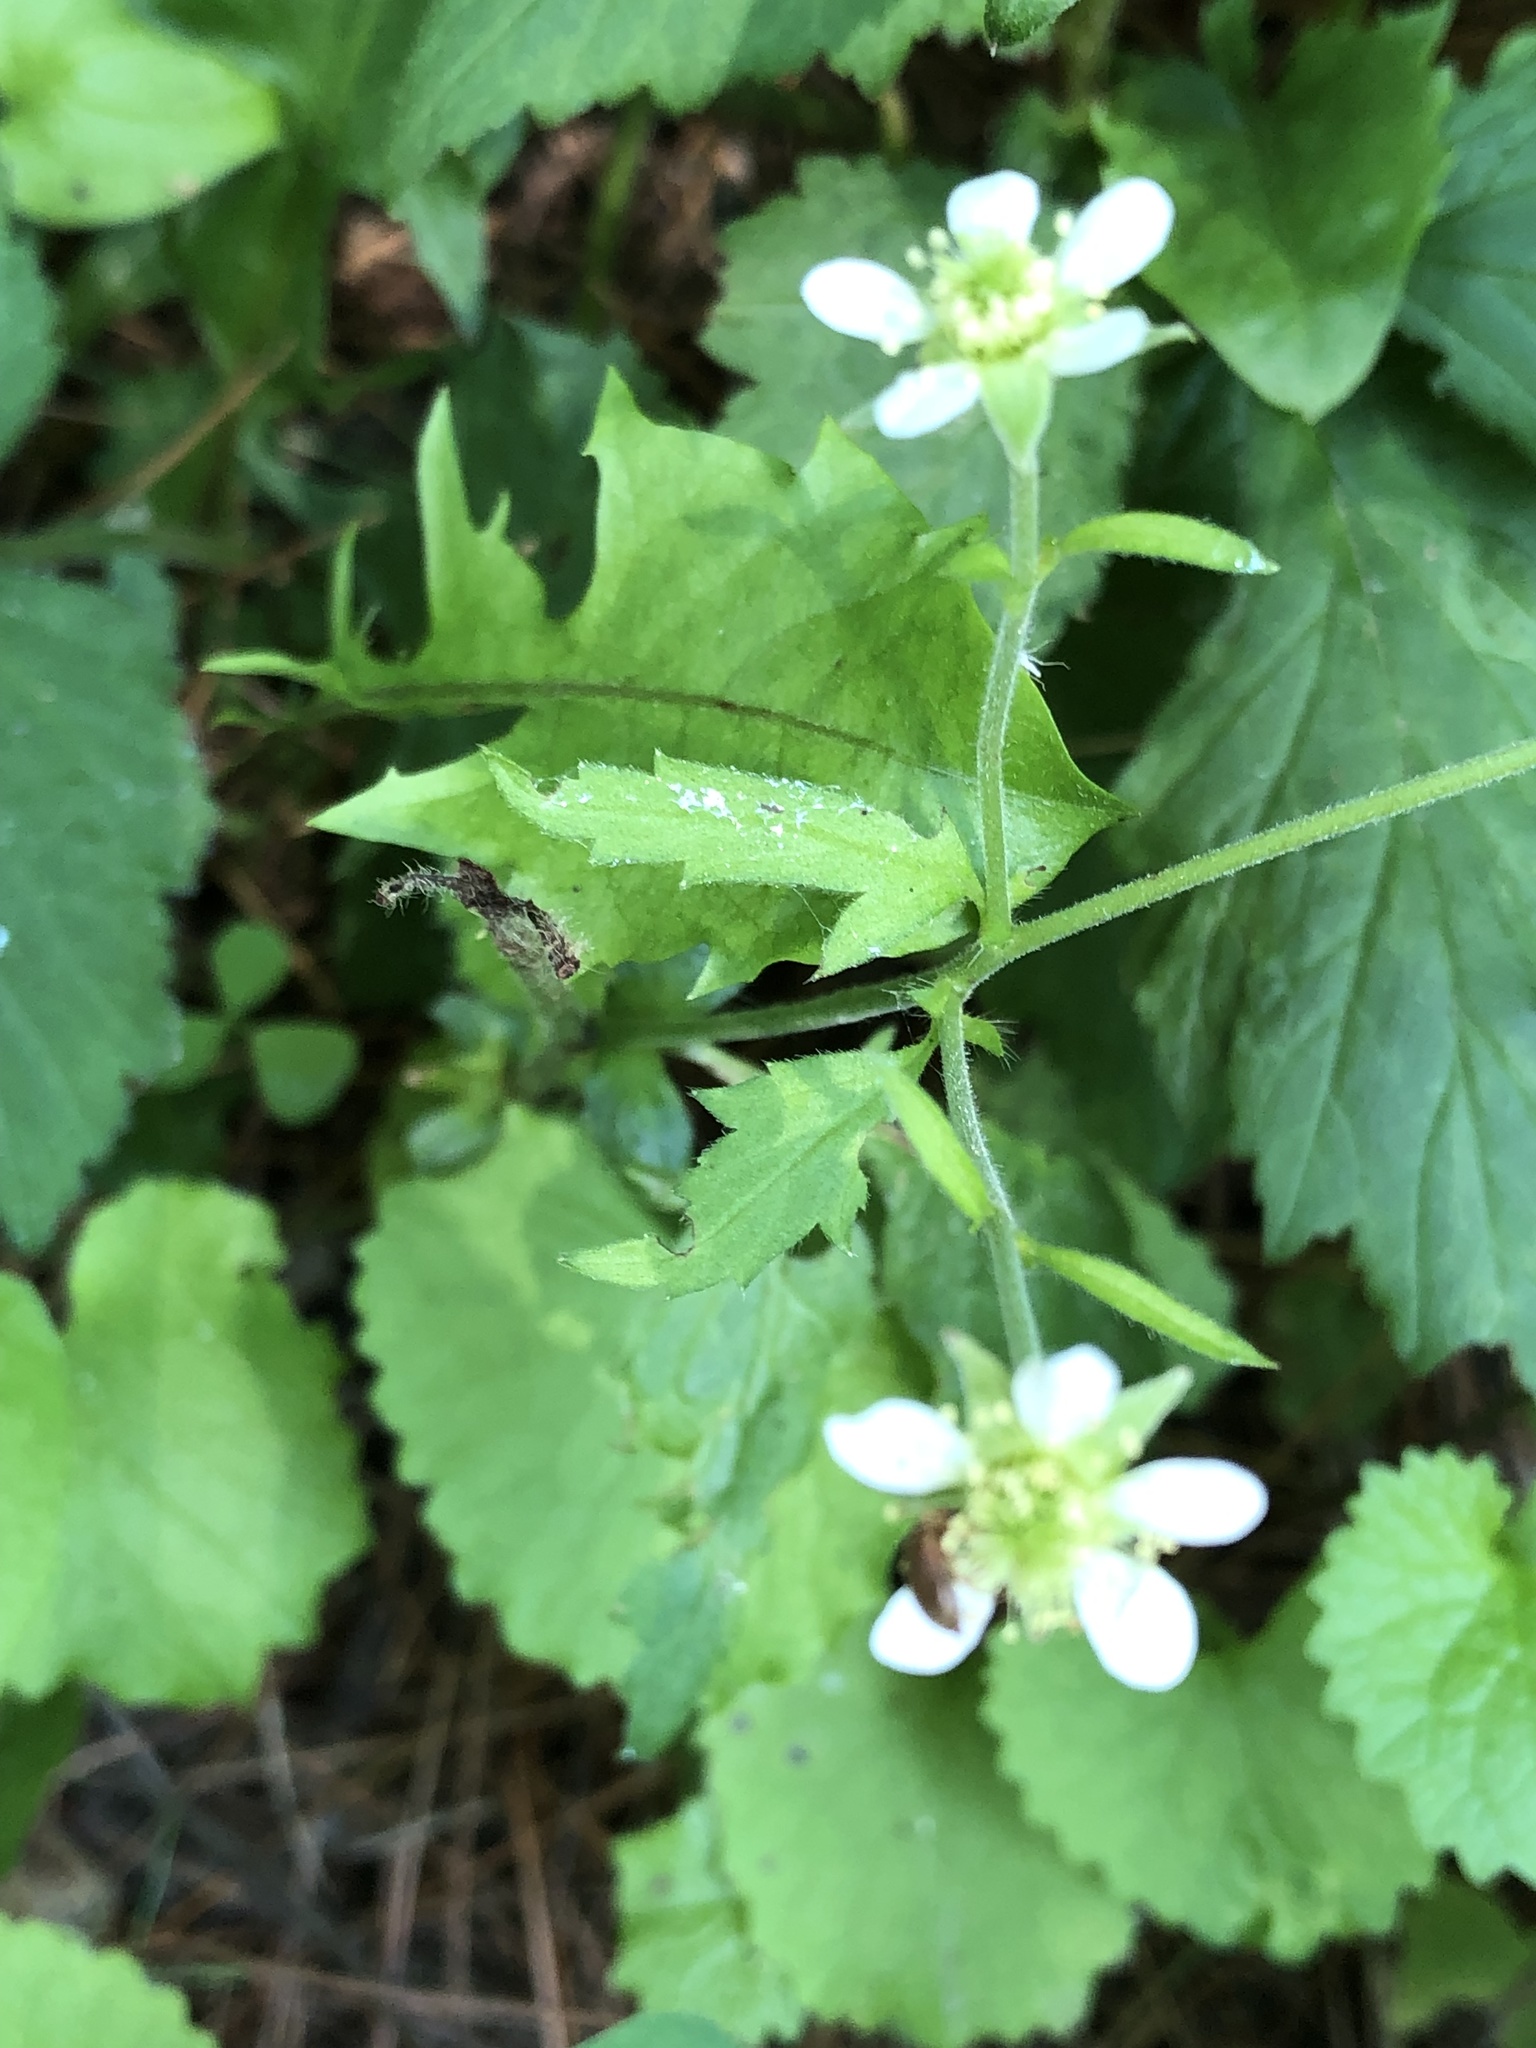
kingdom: Plantae
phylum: Tracheophyta
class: Magnoliopsida
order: Rosales
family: Rosaceae
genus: Geum
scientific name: Geum canadense
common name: White avens
